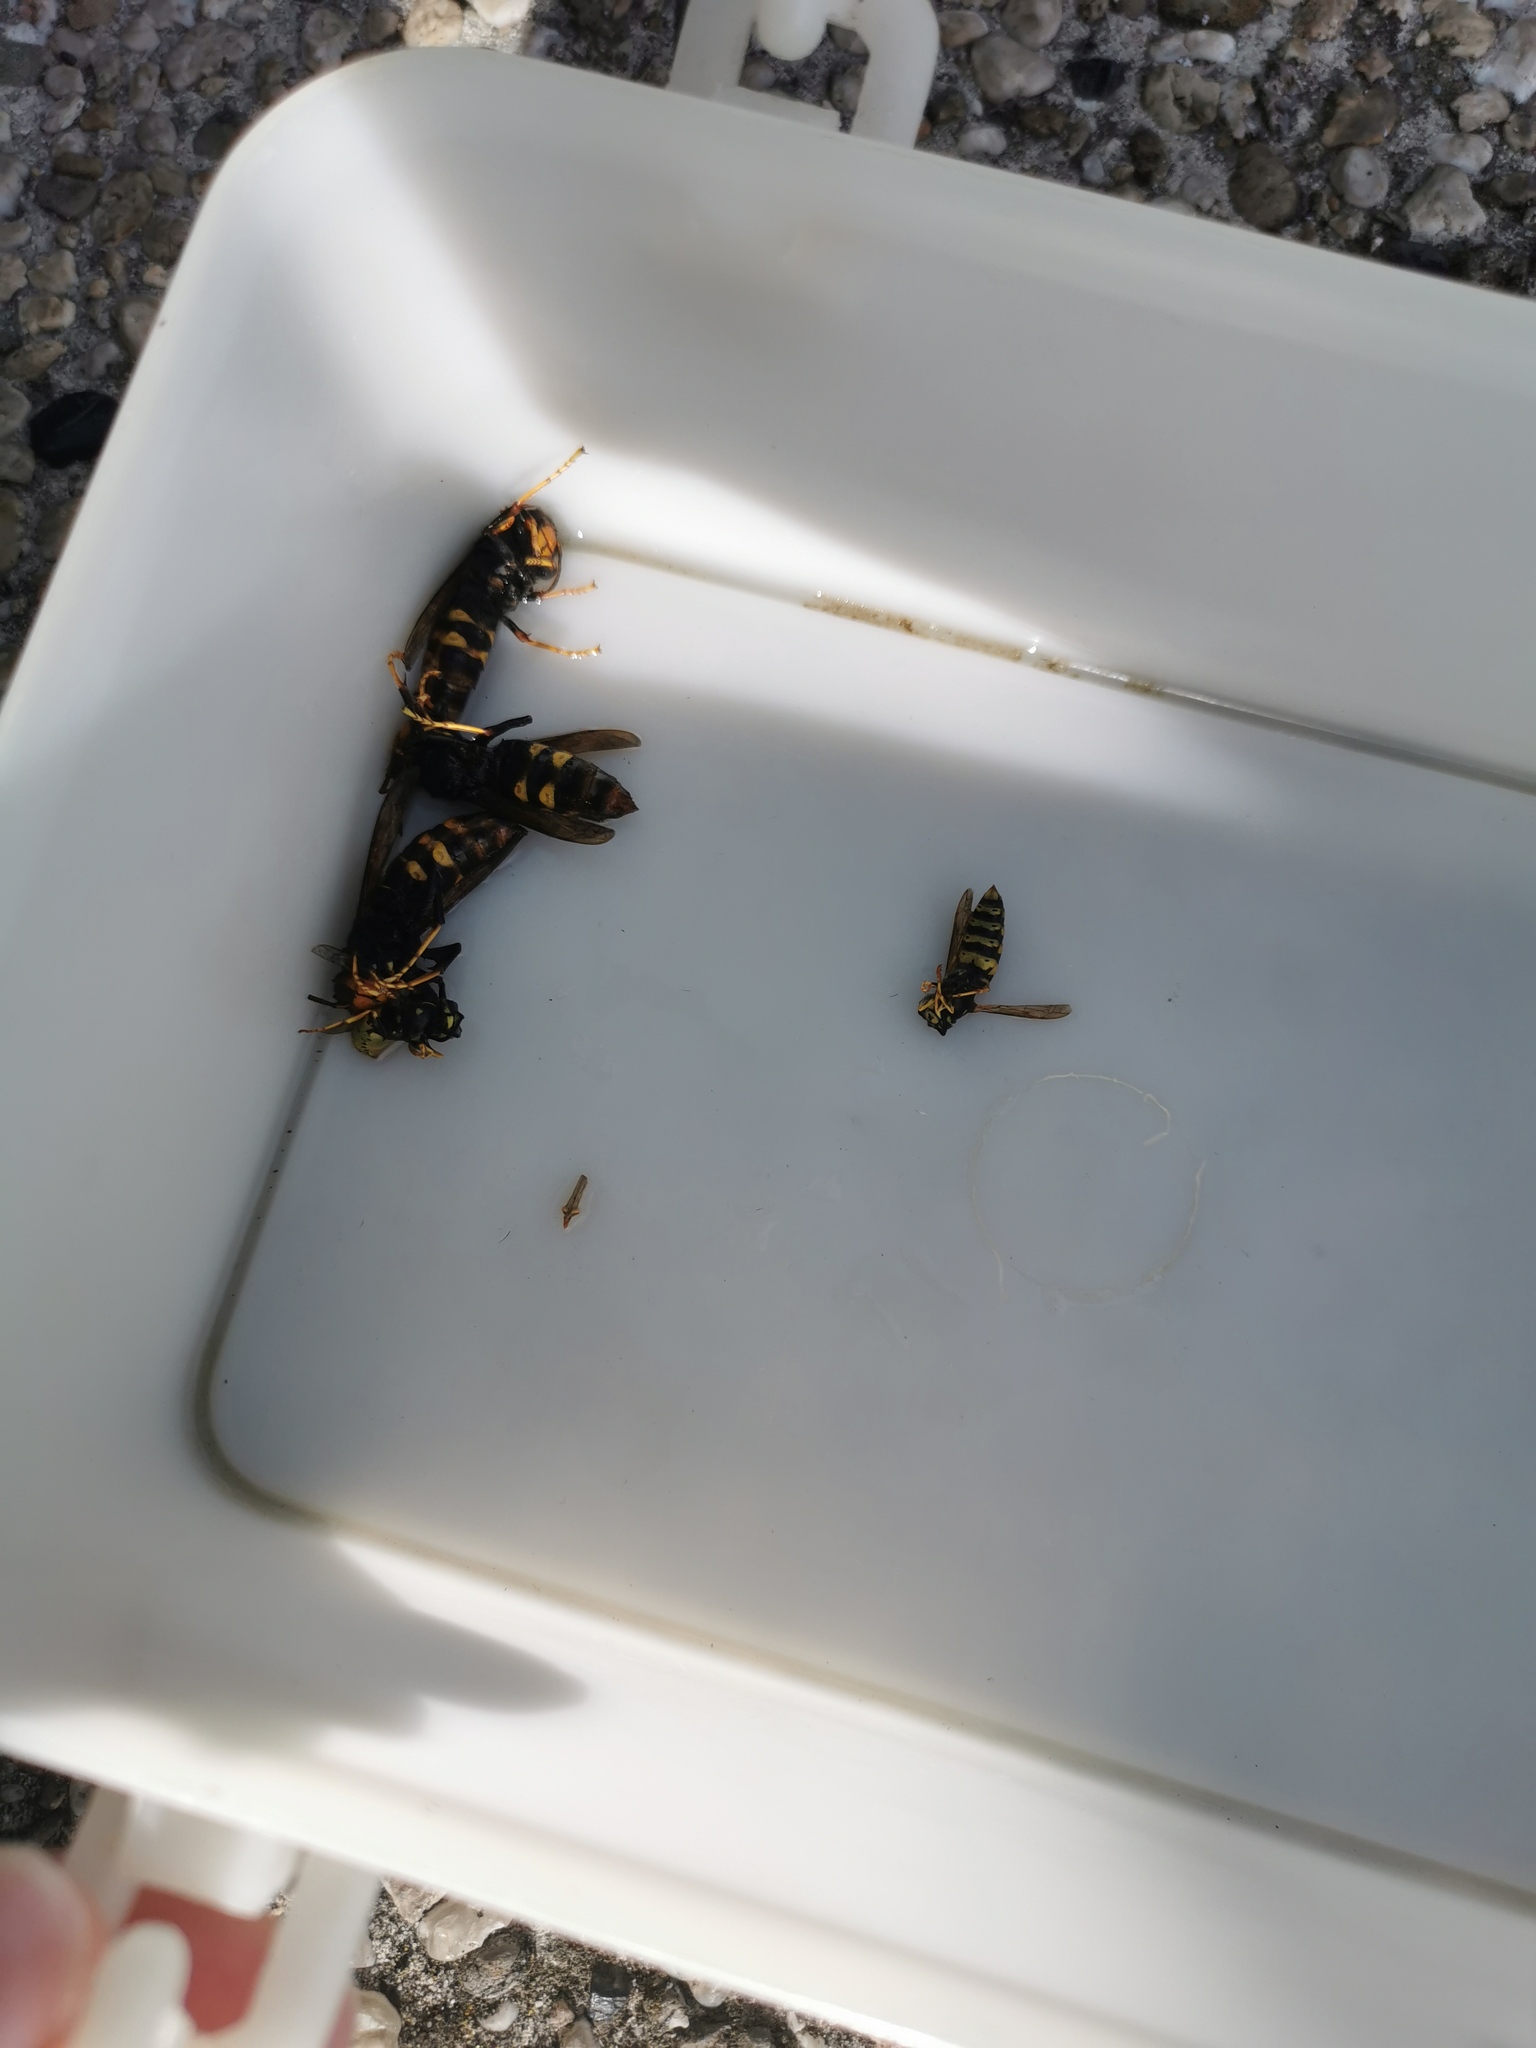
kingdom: Animalia
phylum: Arthropoda
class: Insecta
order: Hymenoptera
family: Vespidae
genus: Vespa
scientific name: Vespa velutina
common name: Asian hornet
